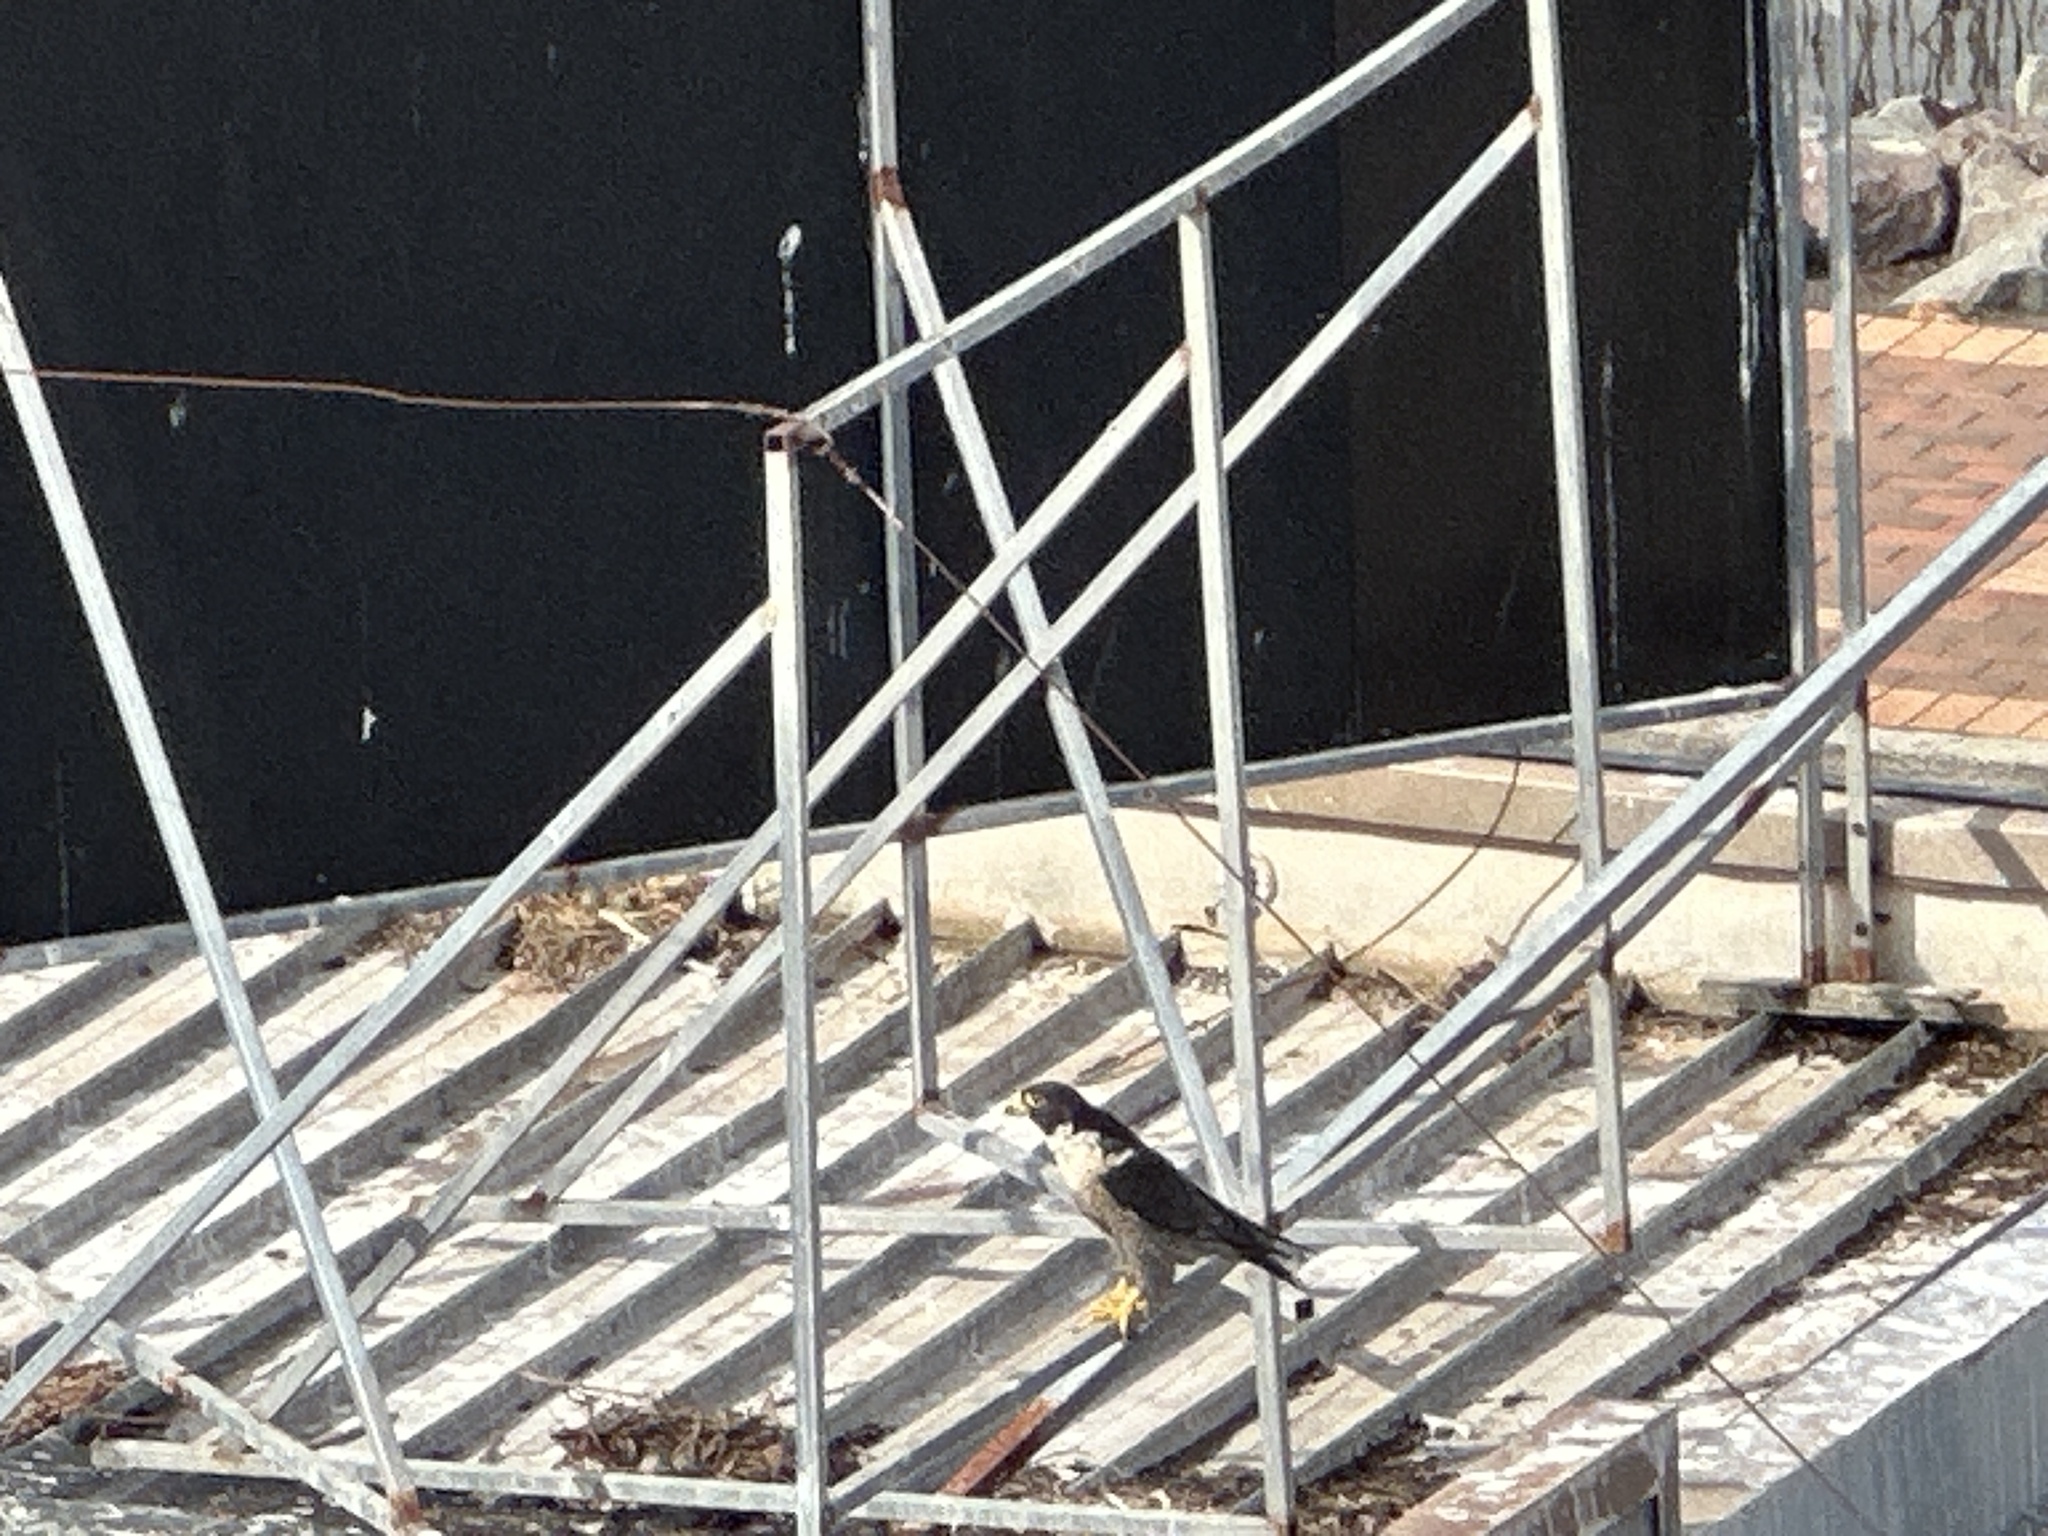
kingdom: Animalia
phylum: Chordata
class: Aves
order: Falconiformes
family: Falconidae
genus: Falco
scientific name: Falco peregrinus
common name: Peregrine falcon
